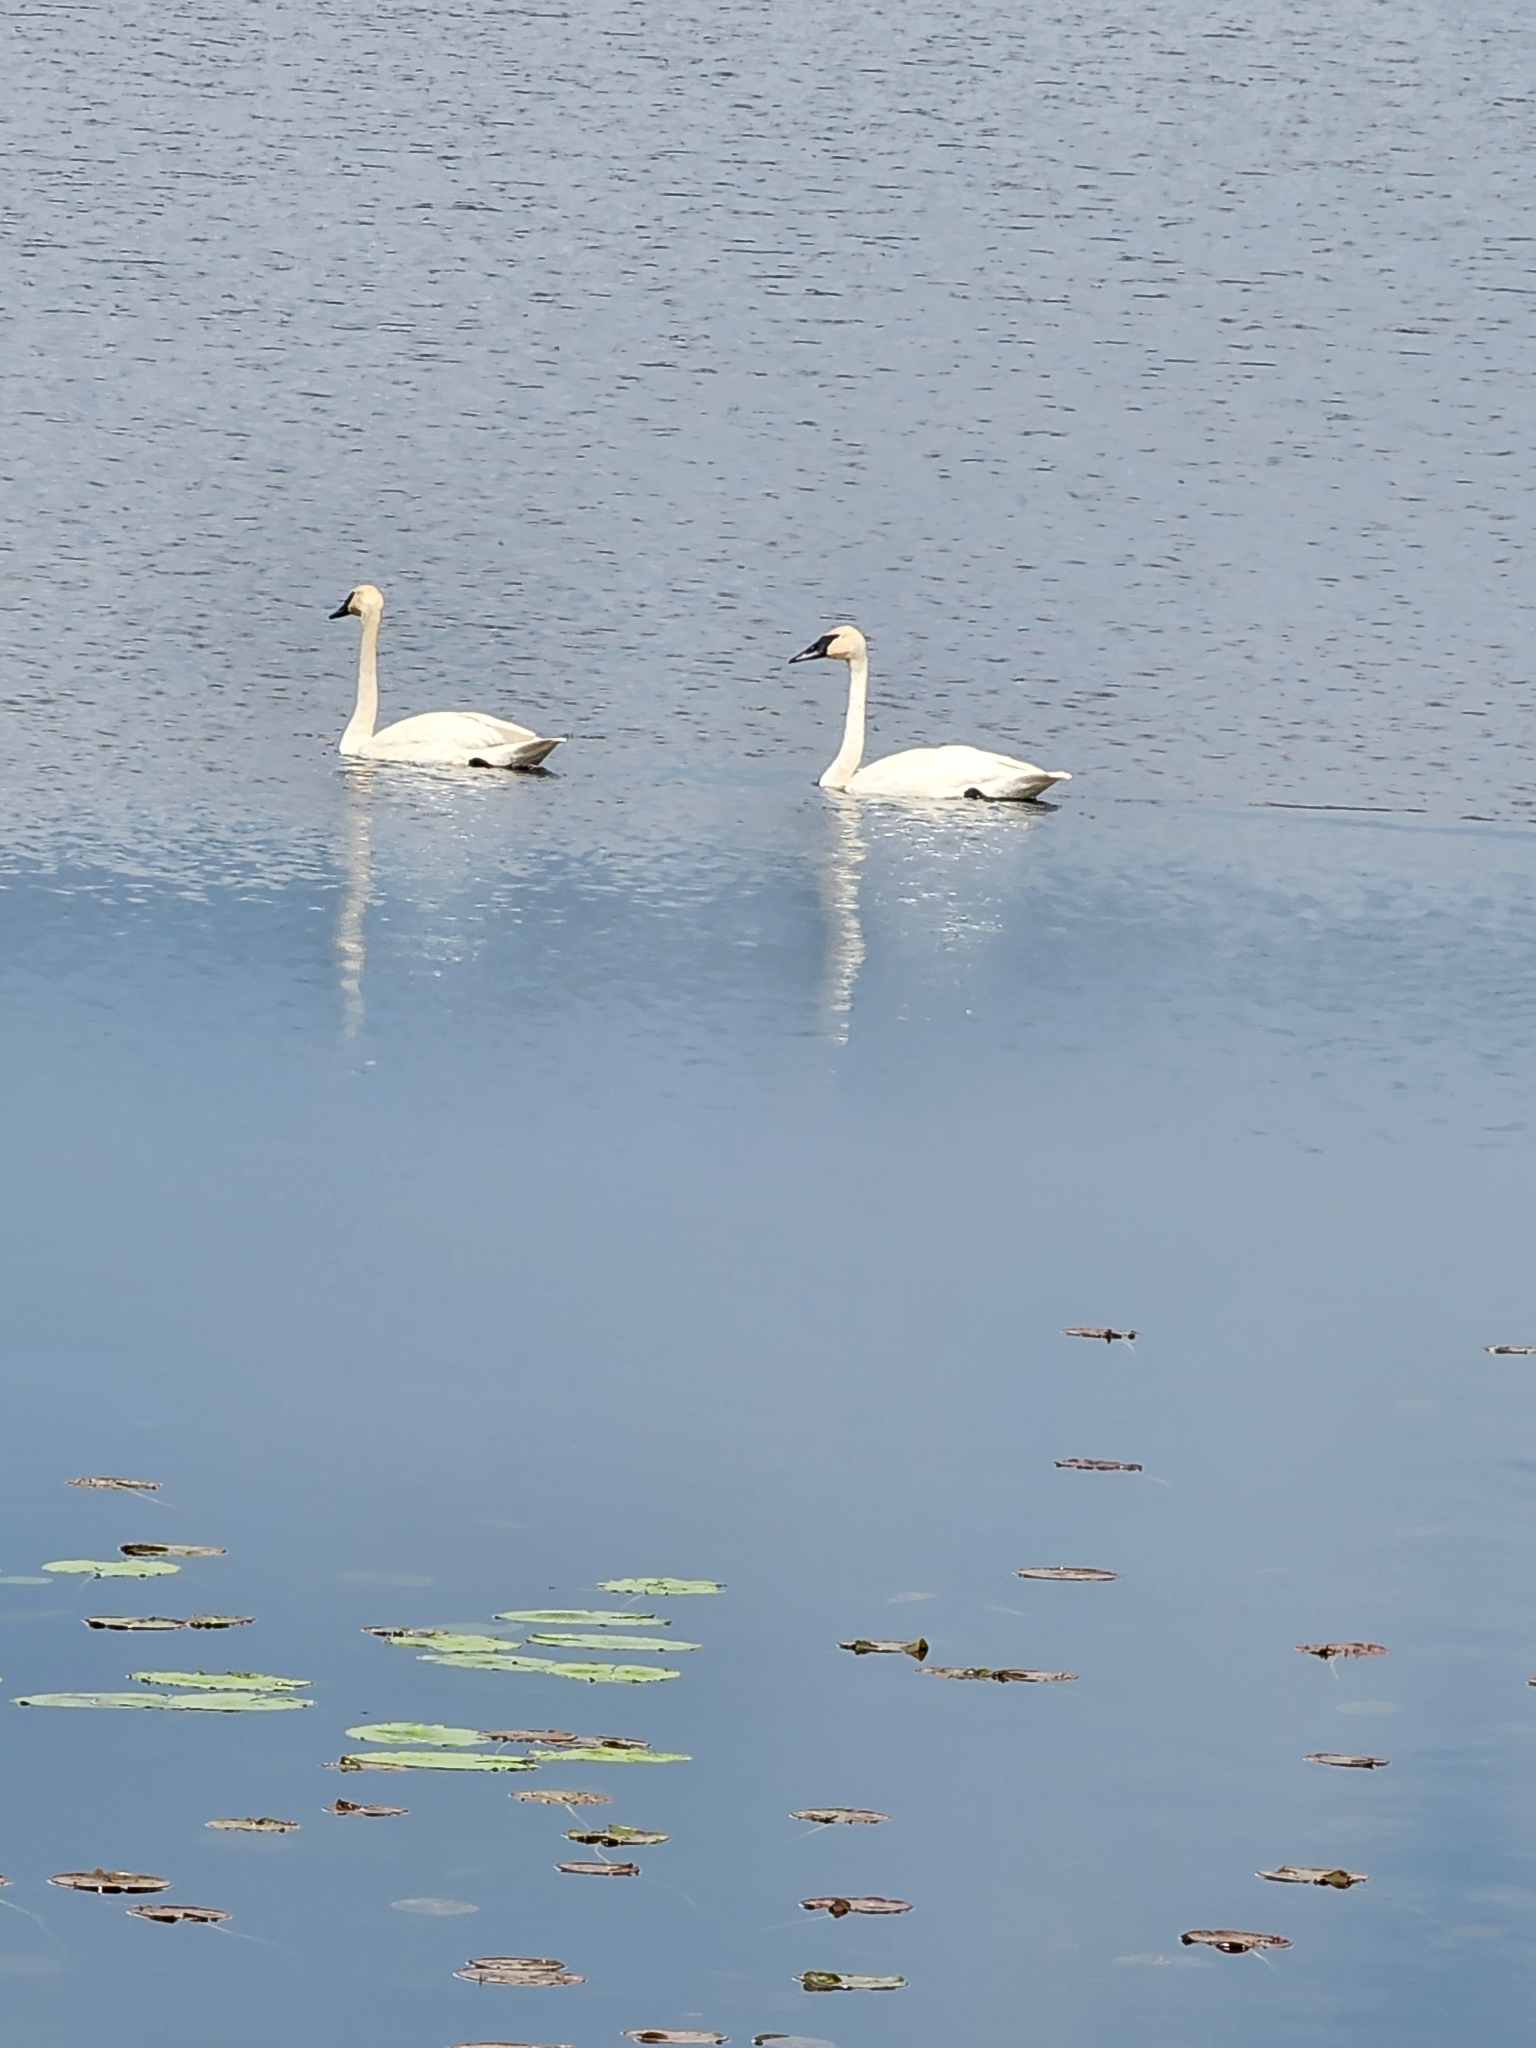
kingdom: Animalia
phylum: Chordata
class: Aves
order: Anseriformes
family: Anatidae
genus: Cygnus
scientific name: Cygnus buccinator
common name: Trumpeter swan
